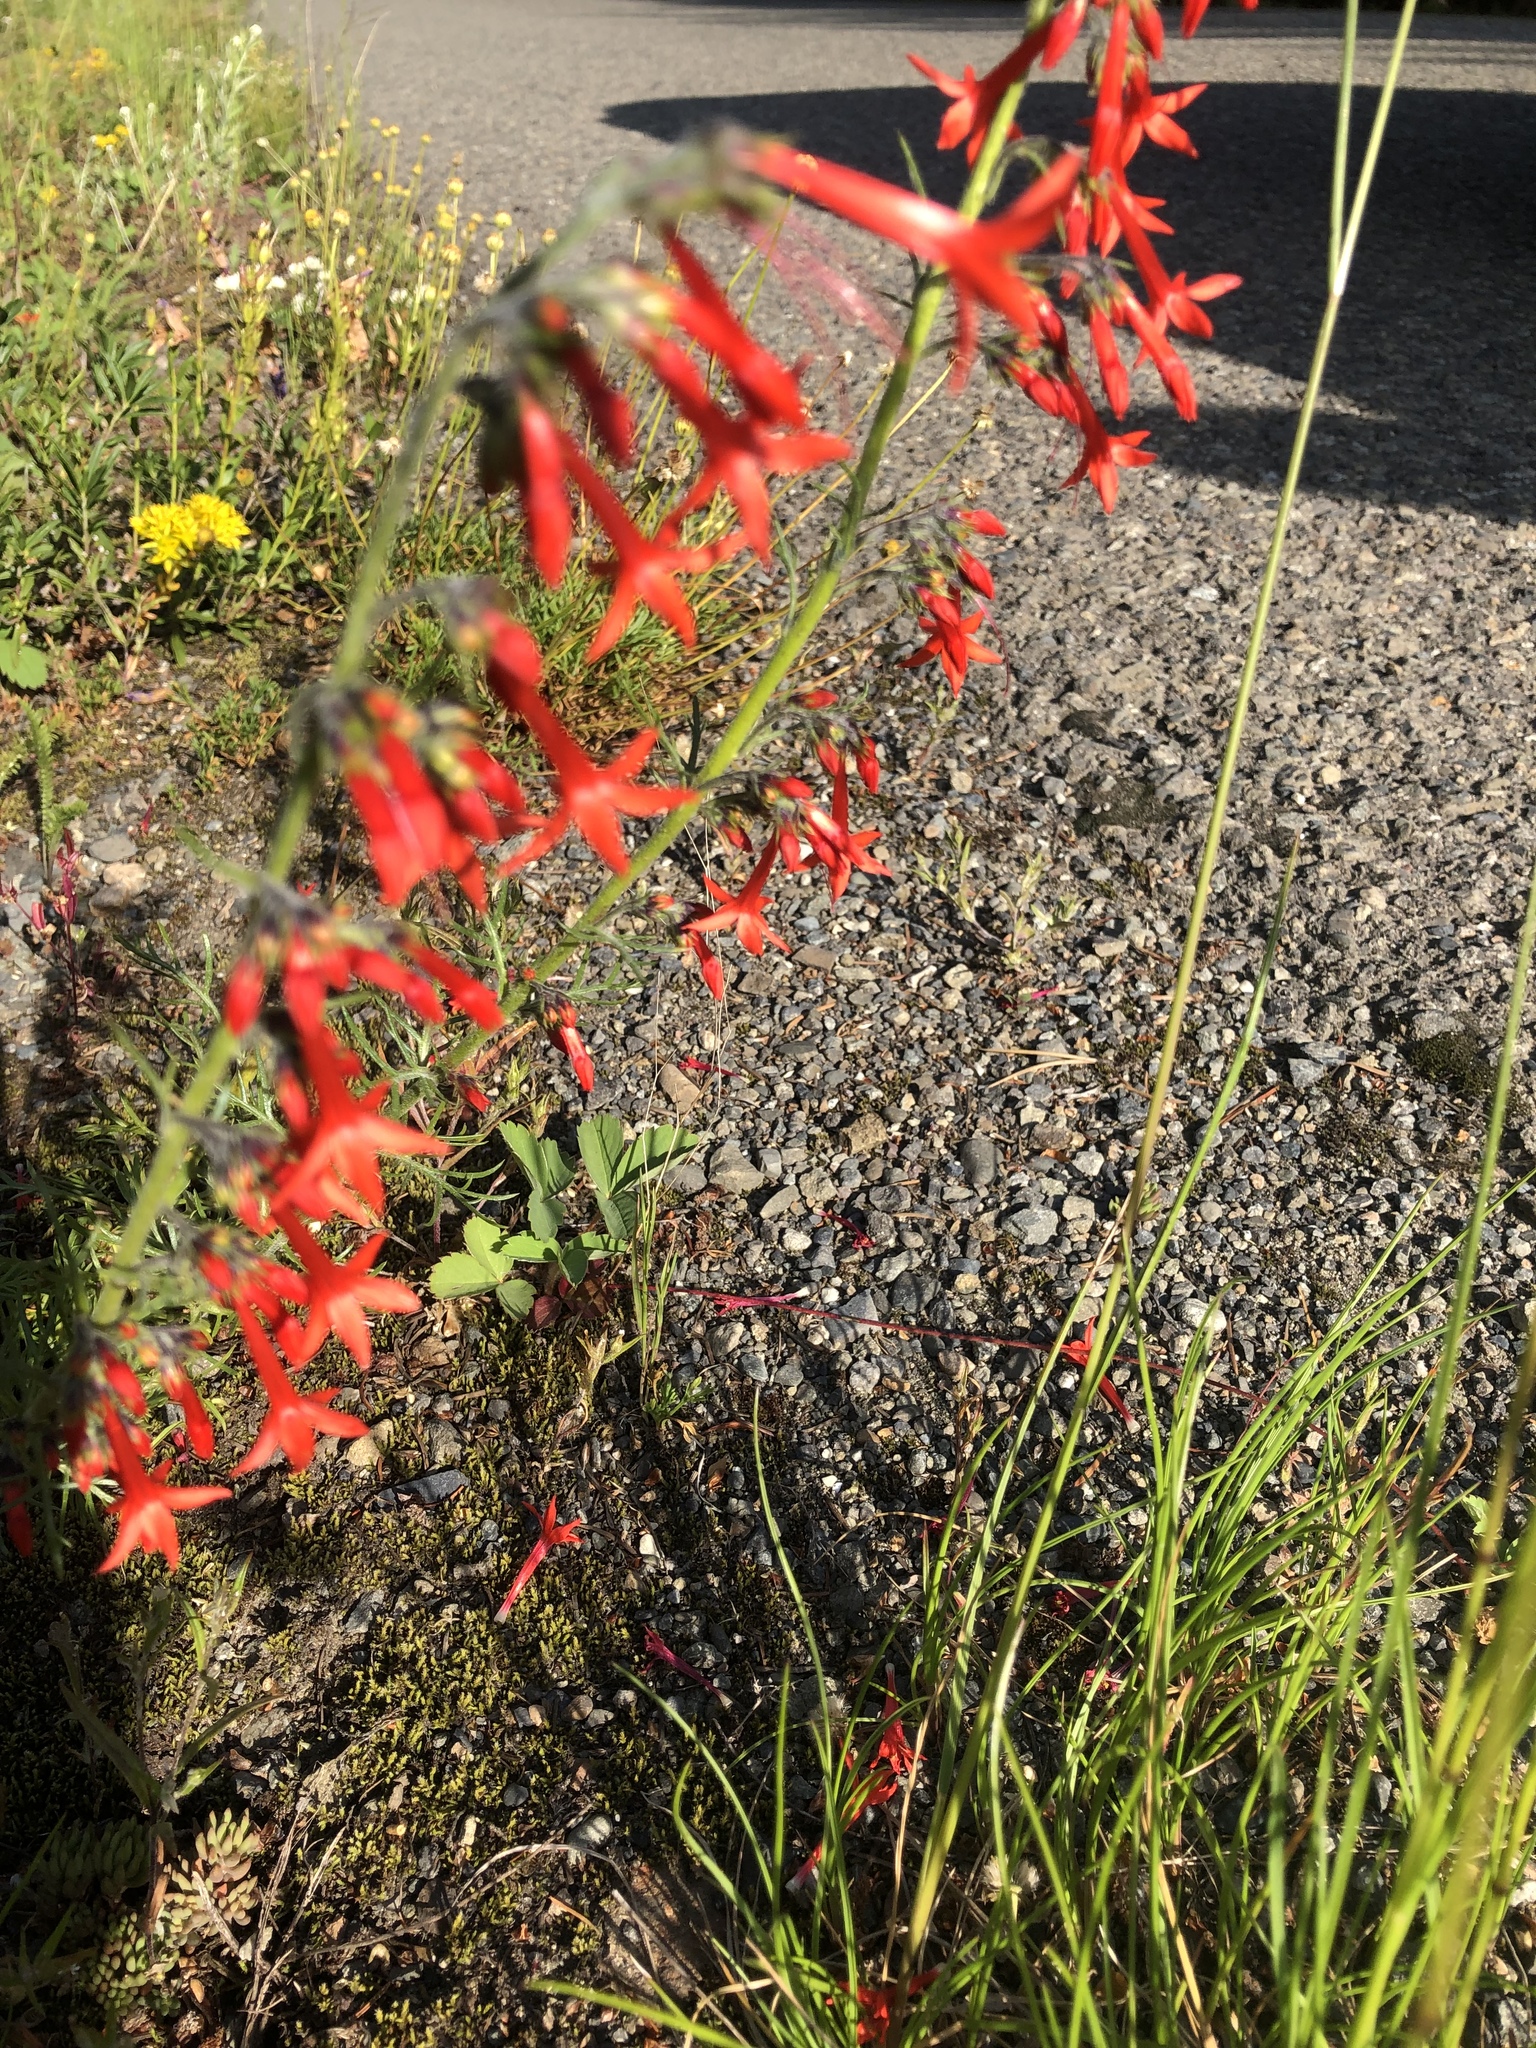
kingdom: Plantae
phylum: Tracheophyta
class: Magnoliopsida
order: Ericales
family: Polemoniaceae
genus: Ipomopsis
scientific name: Ipomopsis aggregata
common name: Scarlet gilia
